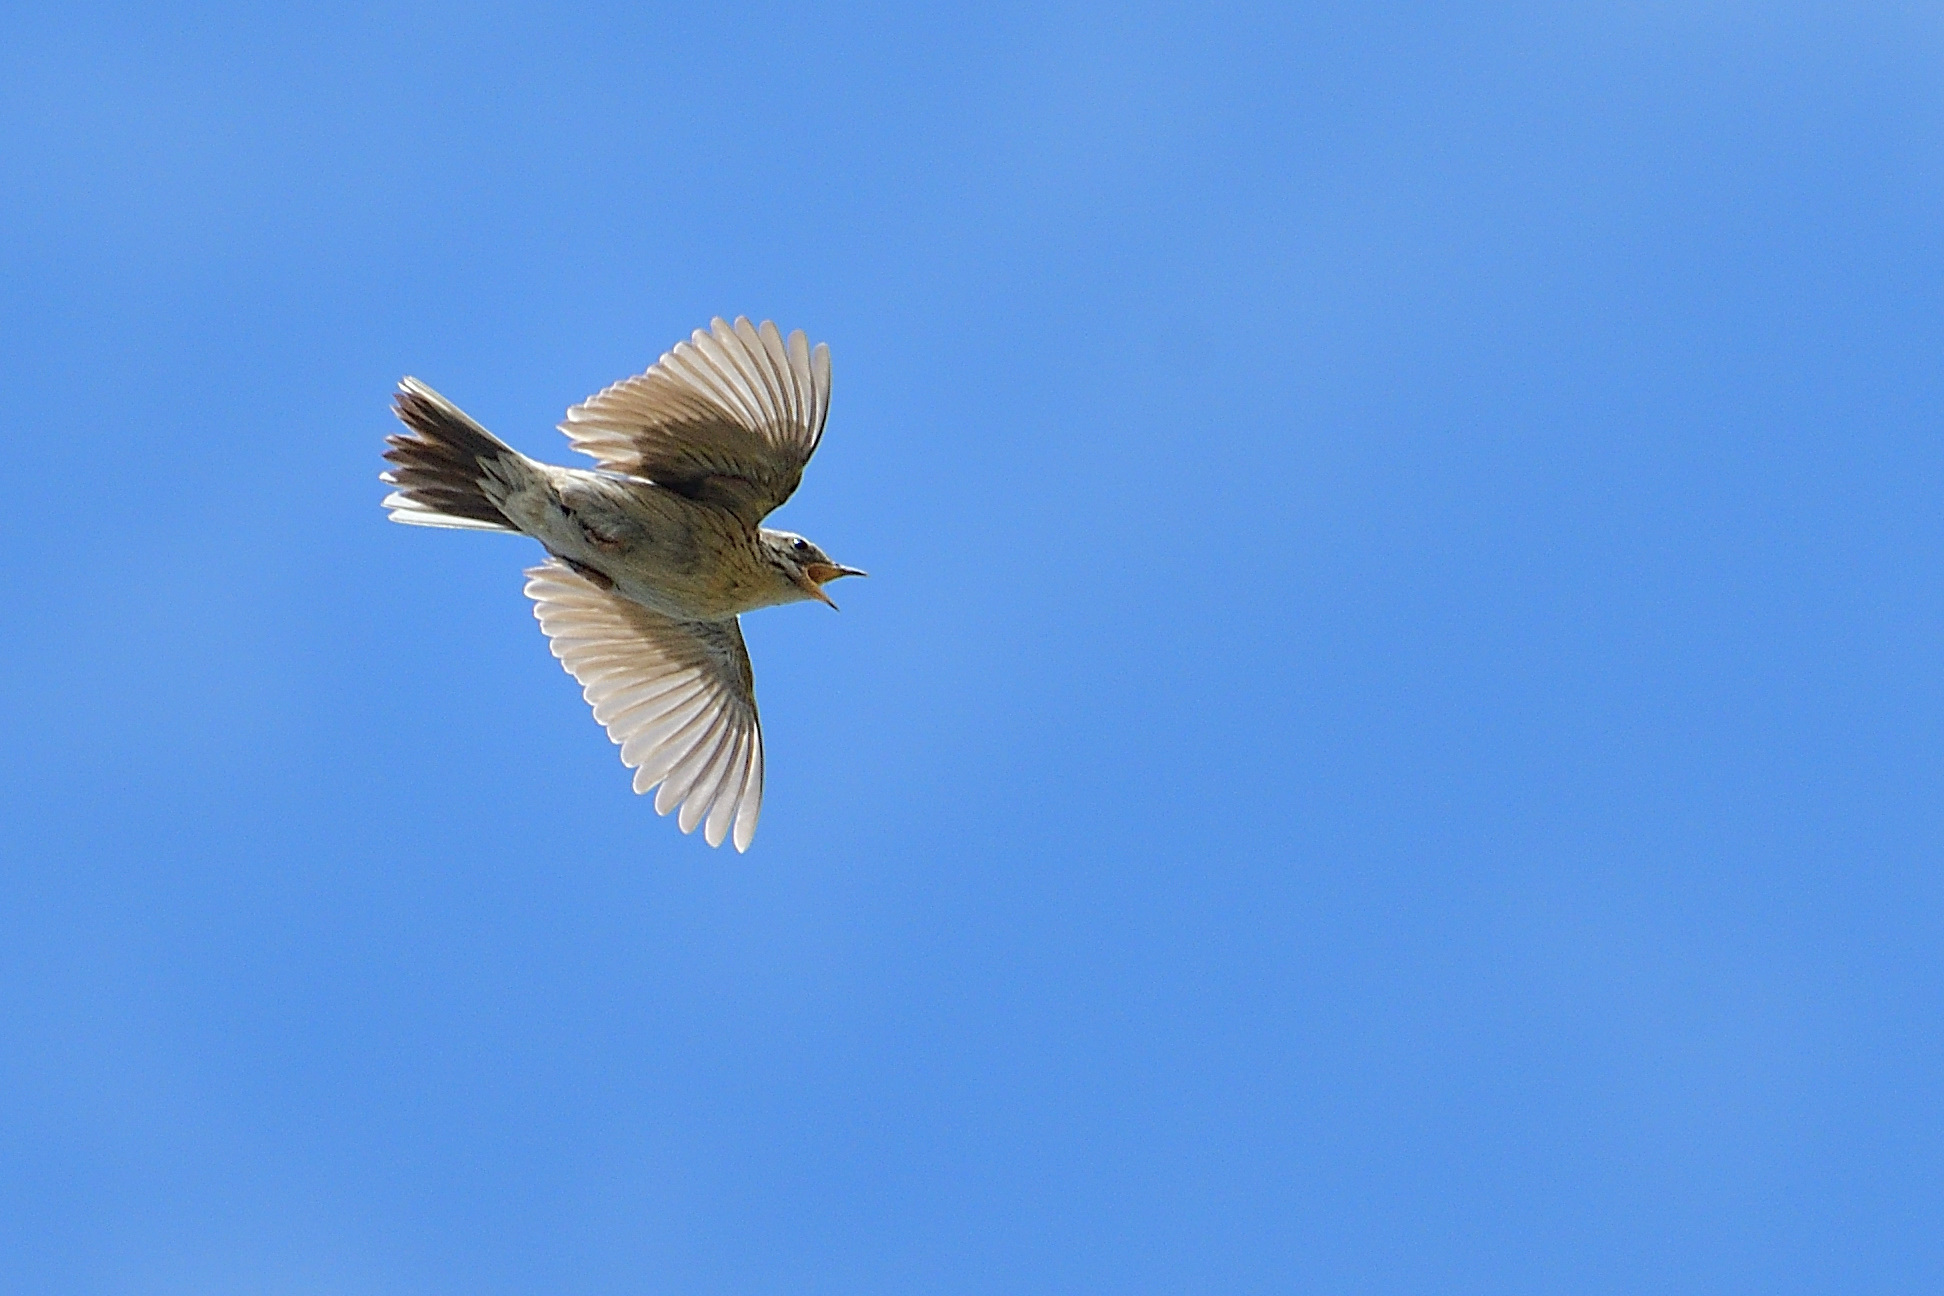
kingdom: Animalia
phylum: Chordata
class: Aves
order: Passeriformes
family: Motacillidae
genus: Anthus
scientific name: Anthus sylvanus
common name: Upland pipit
